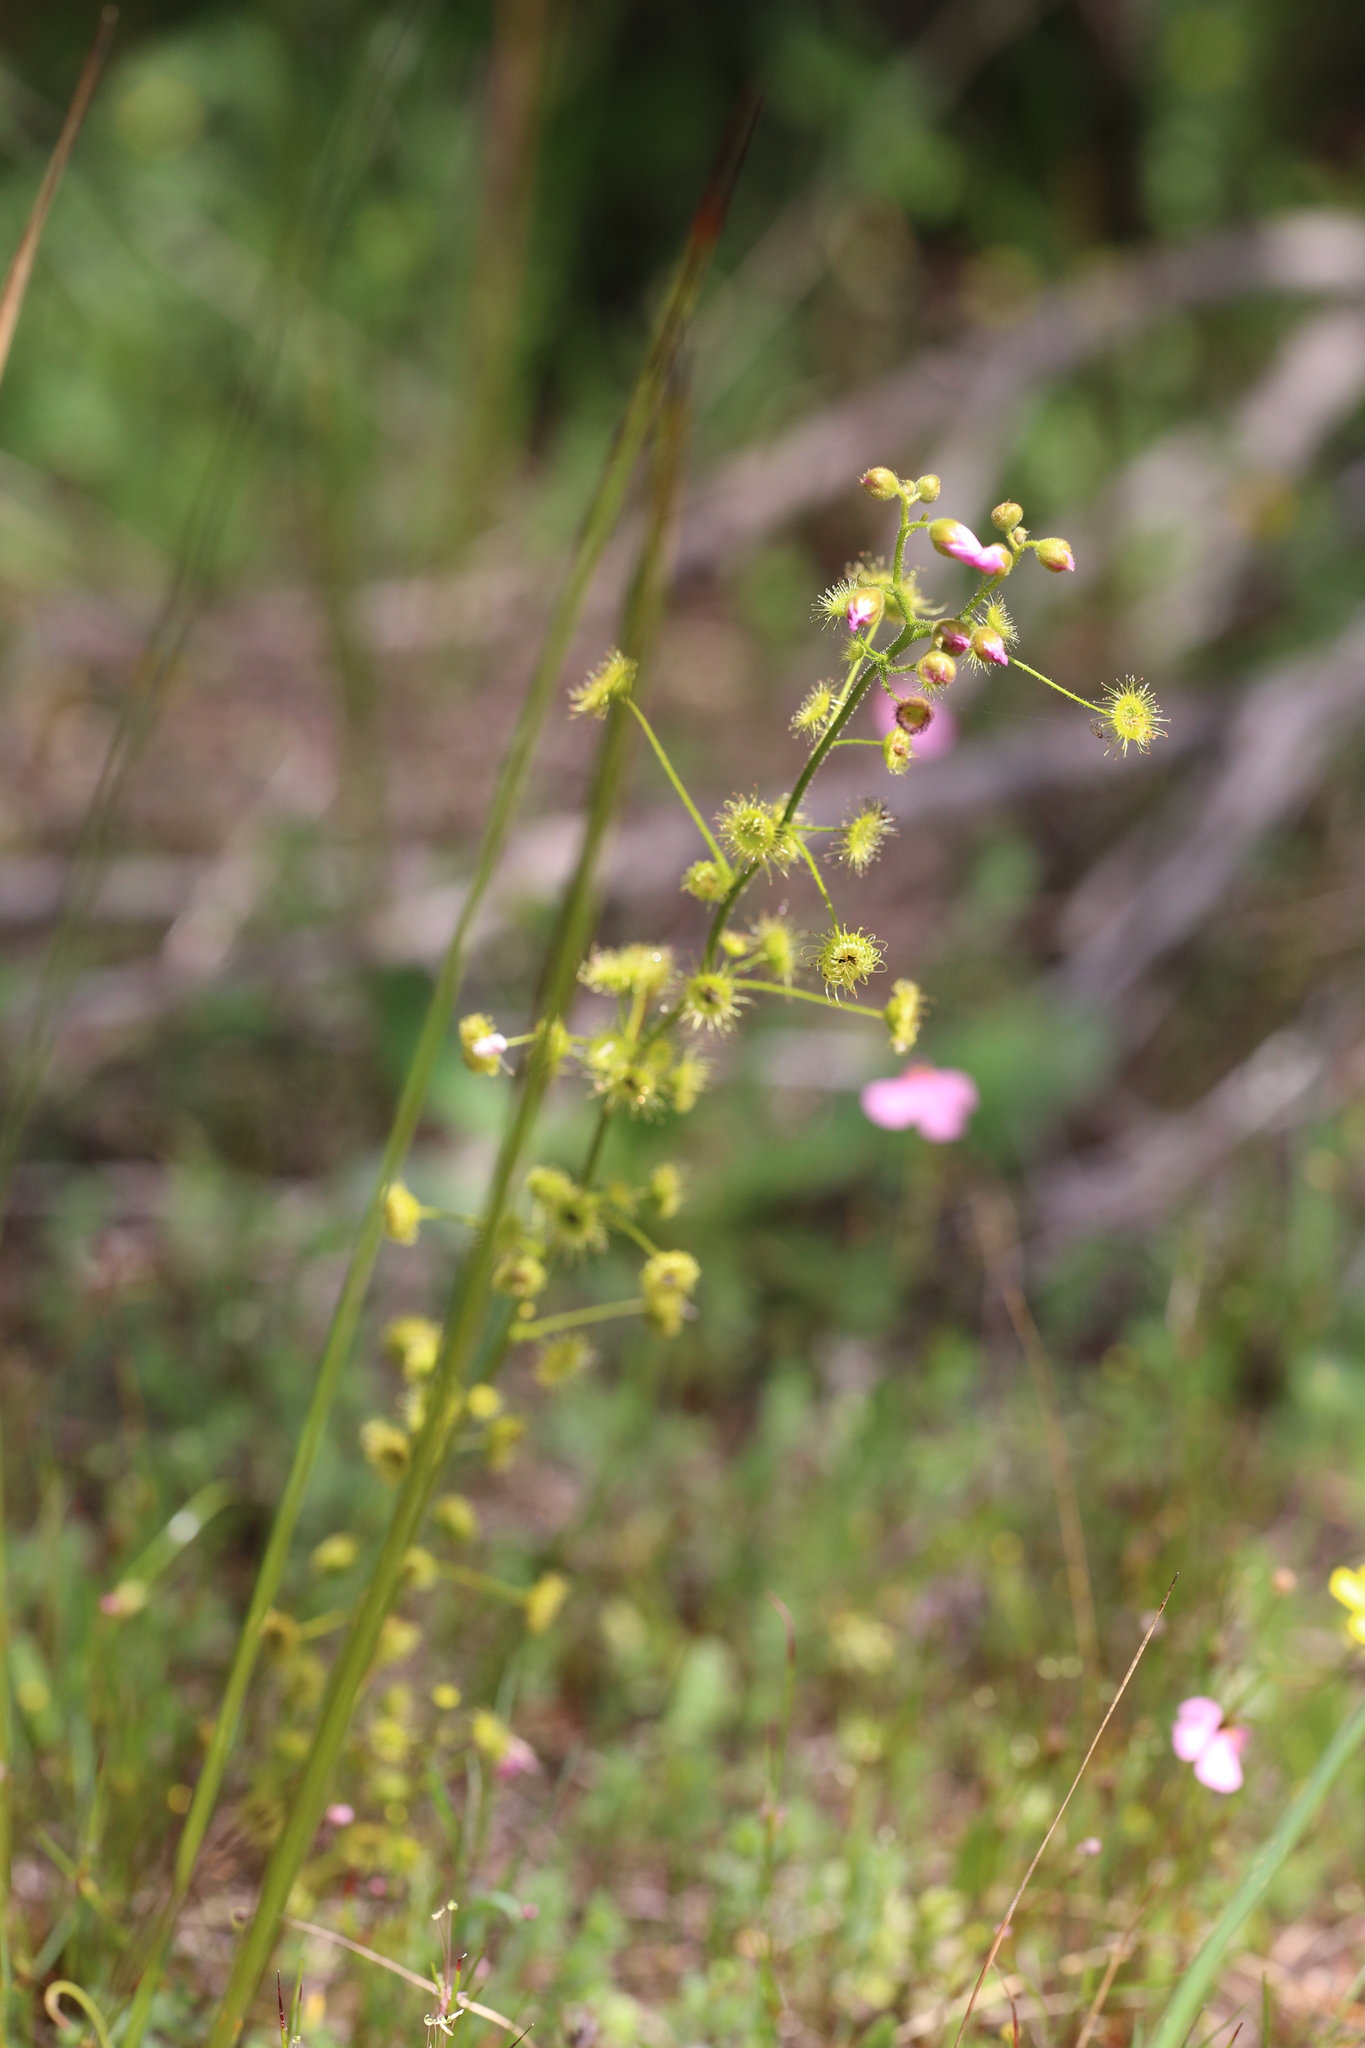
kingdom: Plantae
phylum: Tracheophyta
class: Magnoliopsida
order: Caryophyllales
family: Droseraceae
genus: Drosera
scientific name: Drosera stricticaulis
